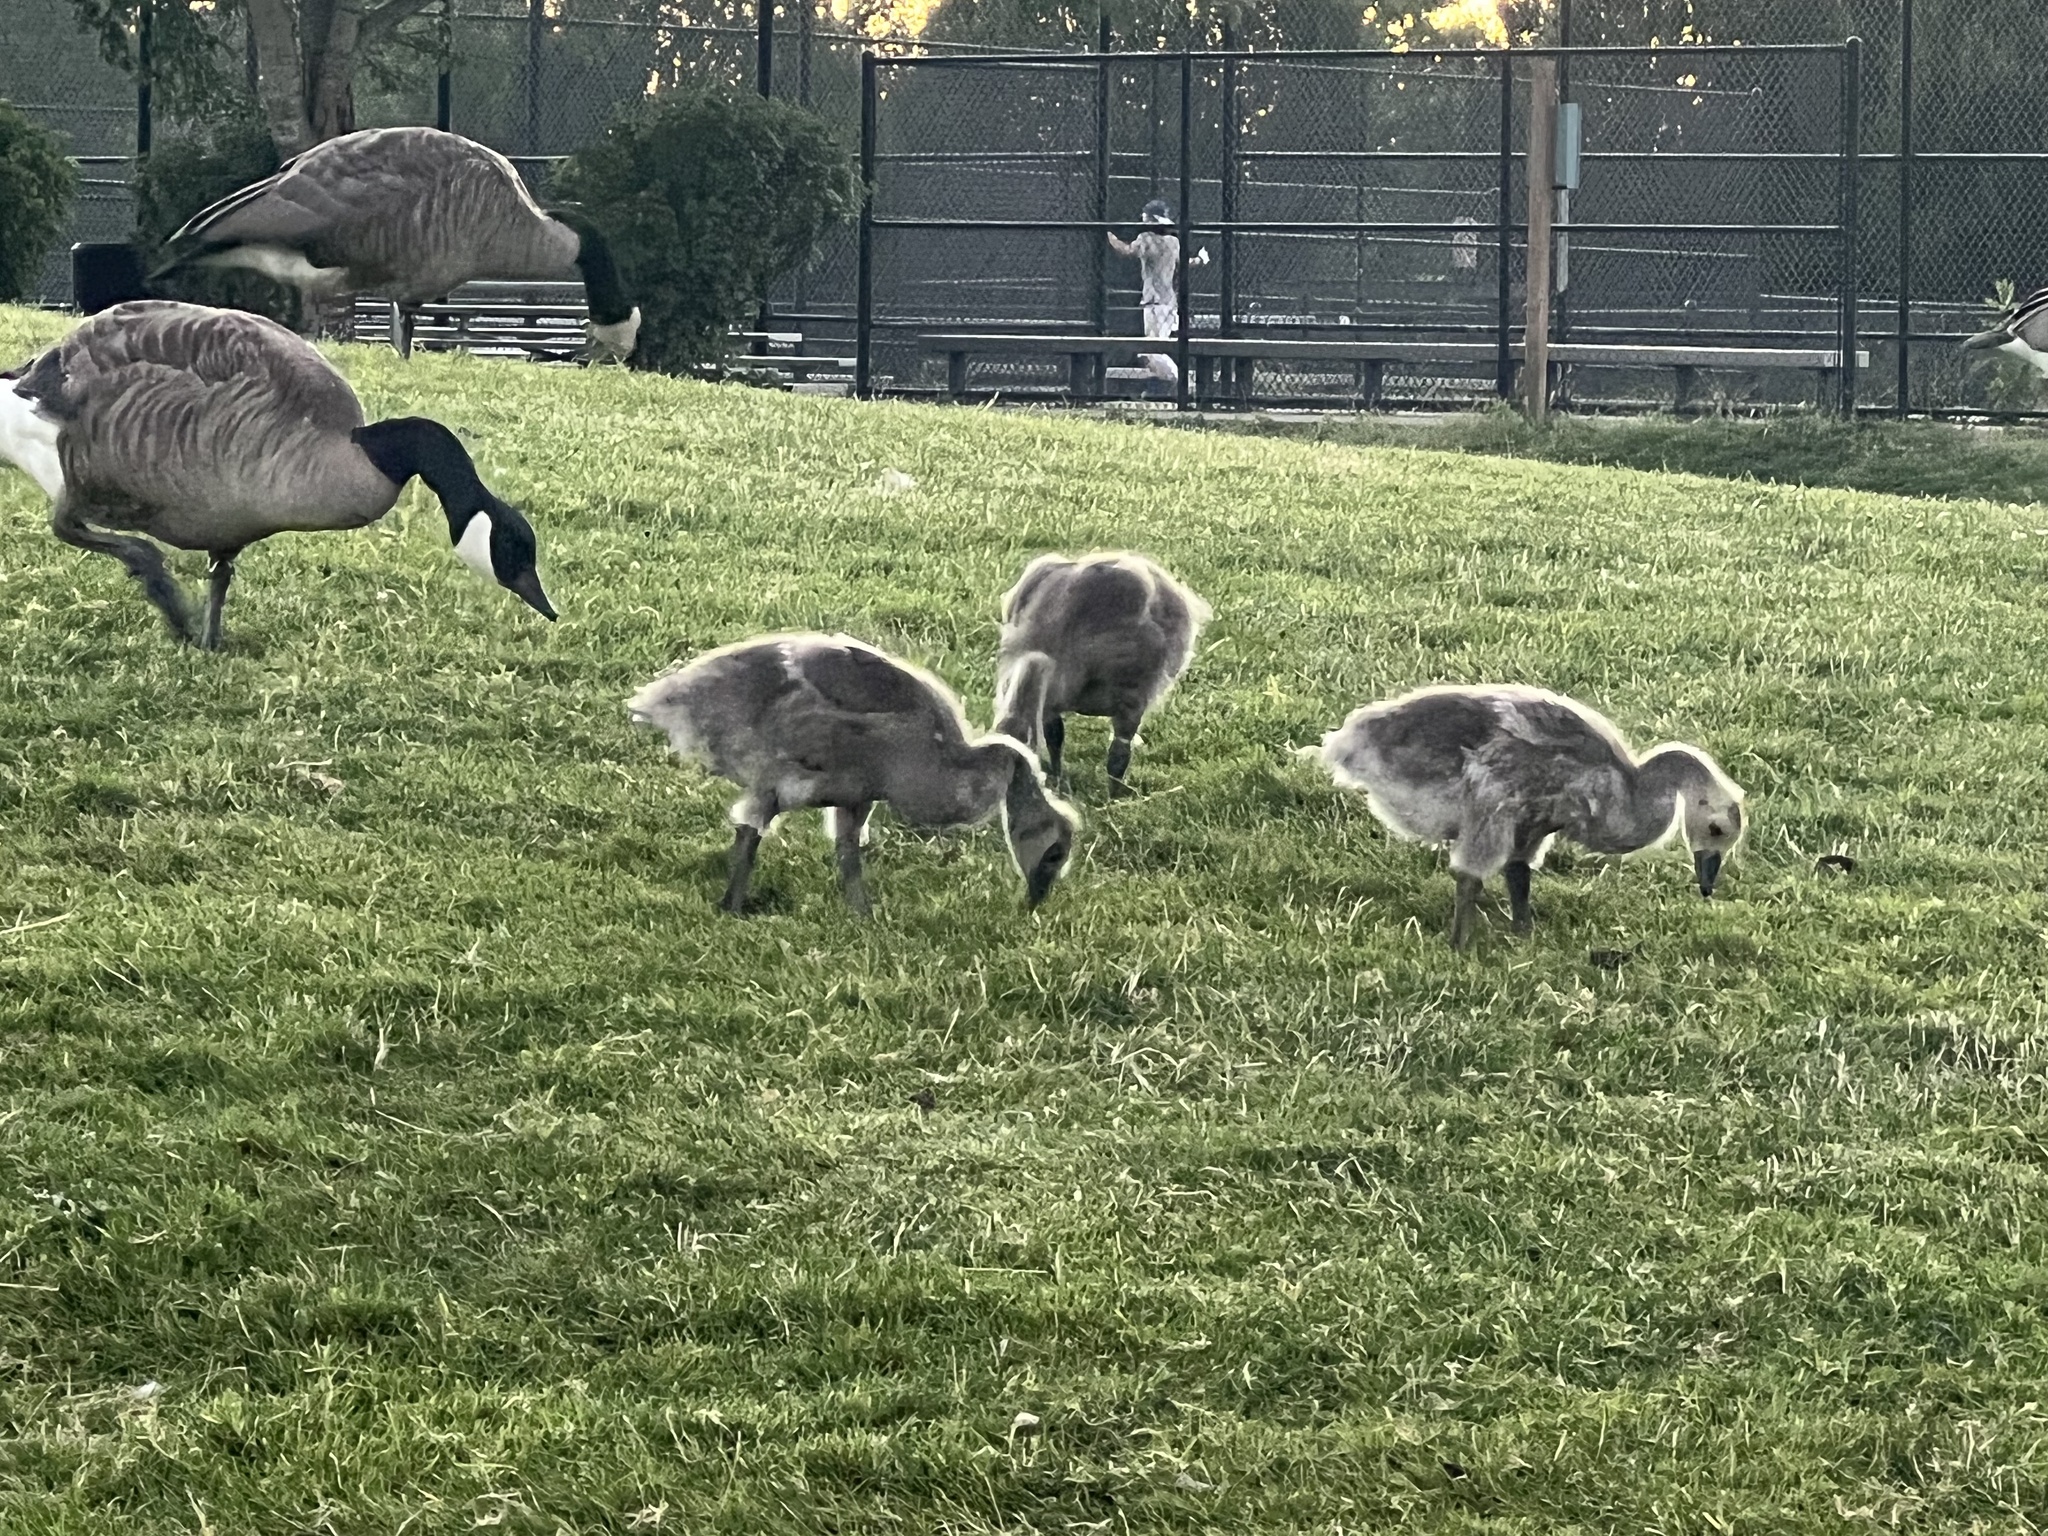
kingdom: Animalia
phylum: Chordata
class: Aves
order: Anseriformes
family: Anatidae
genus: Branta
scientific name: Branta canadensis
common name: Canada goose
